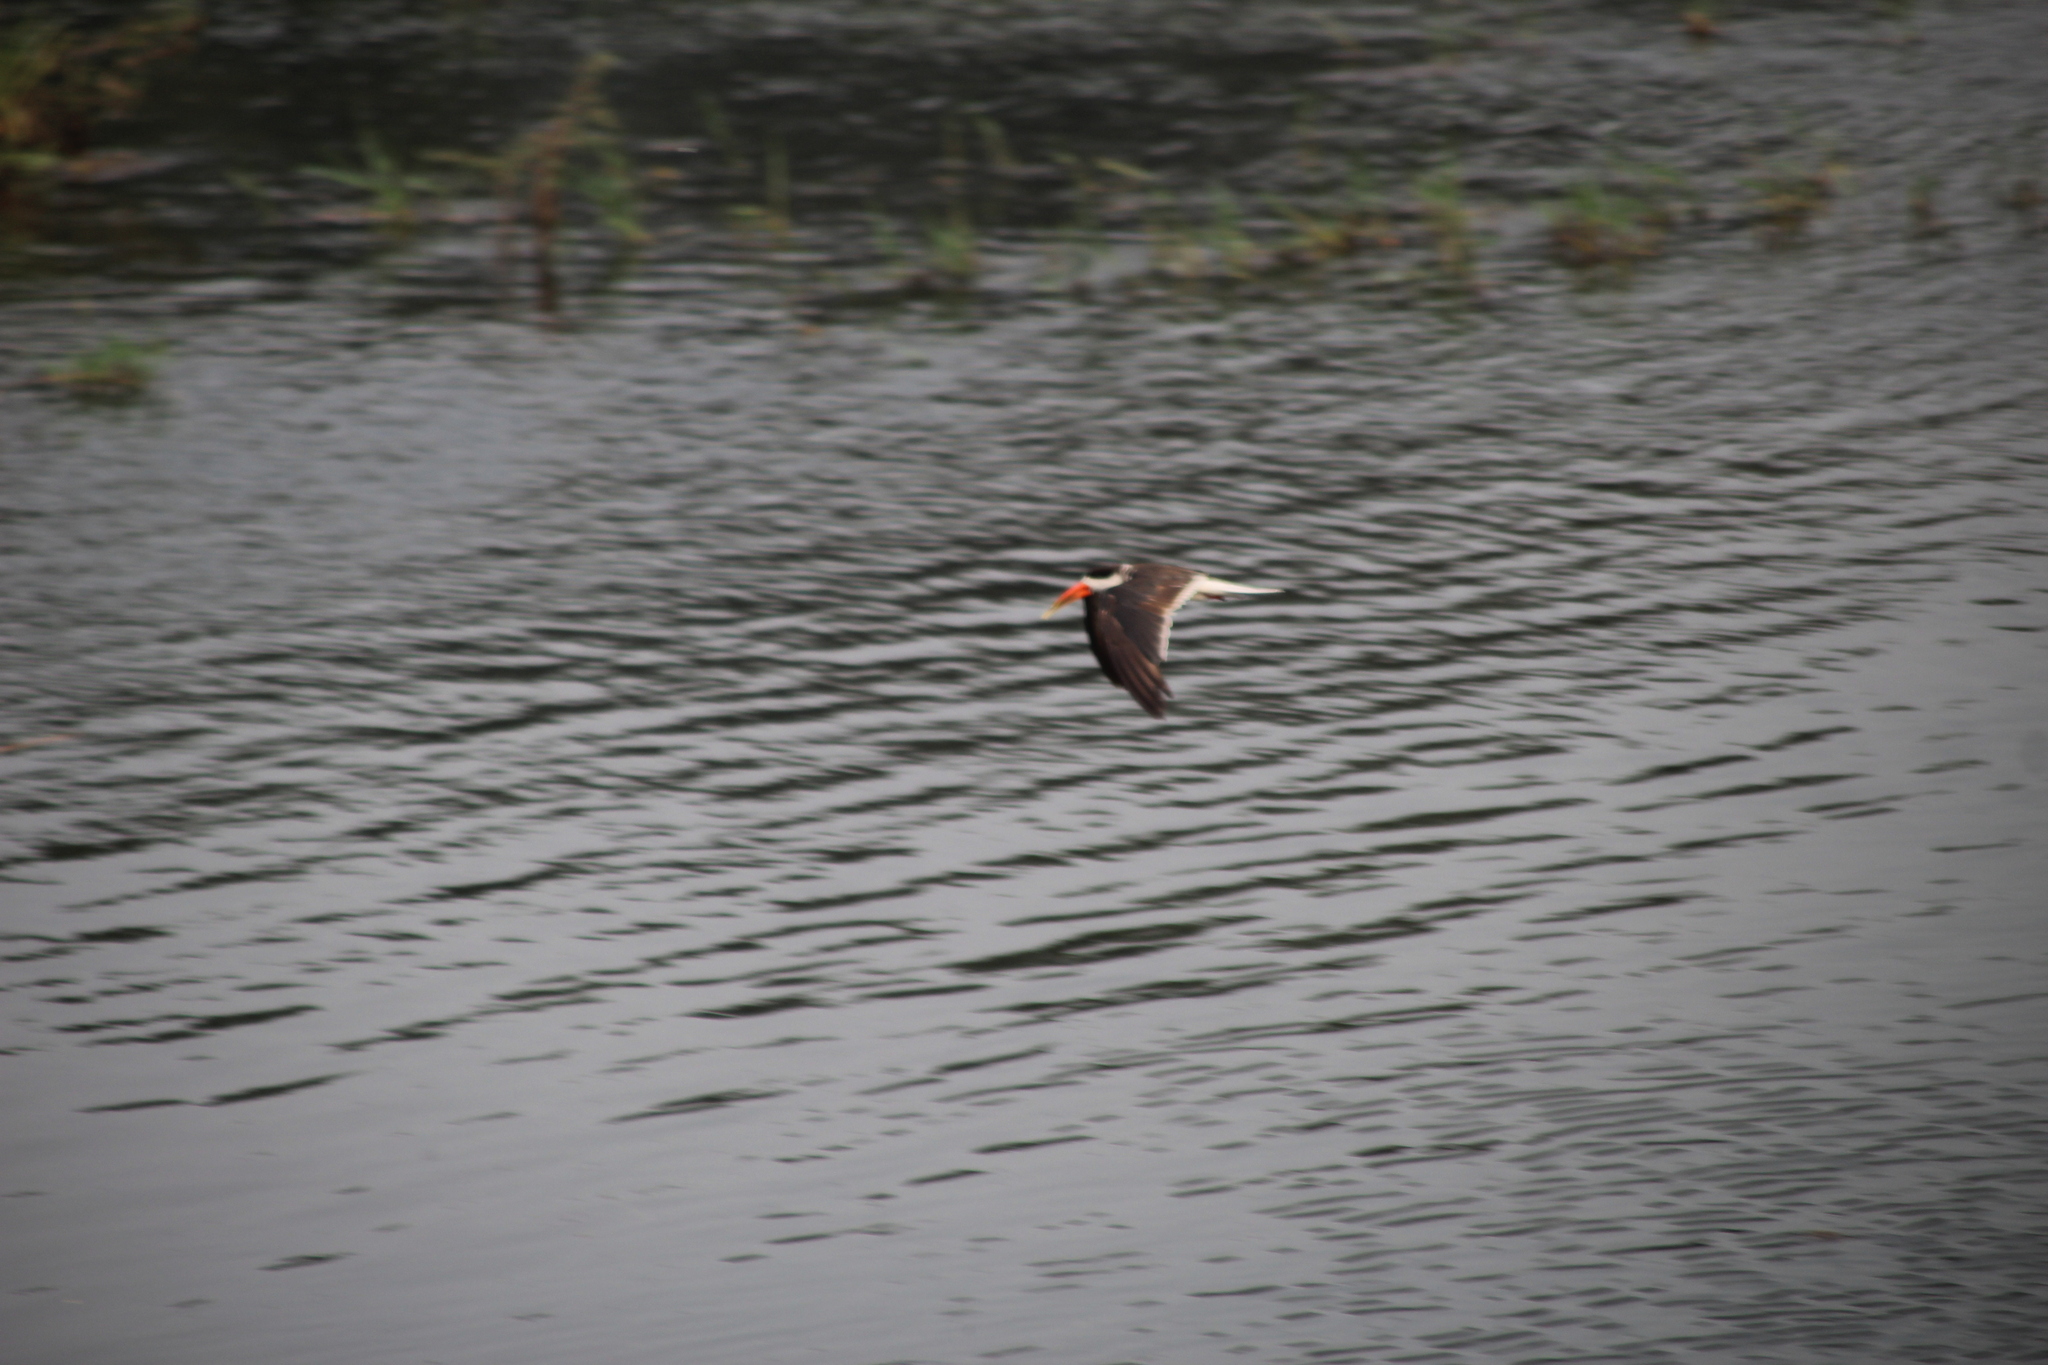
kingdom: Animalia
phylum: Chordata
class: Aves
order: Charadriiformes
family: Laridae
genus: Rynchops
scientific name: Rynchops flavirostris
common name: African skimmer
